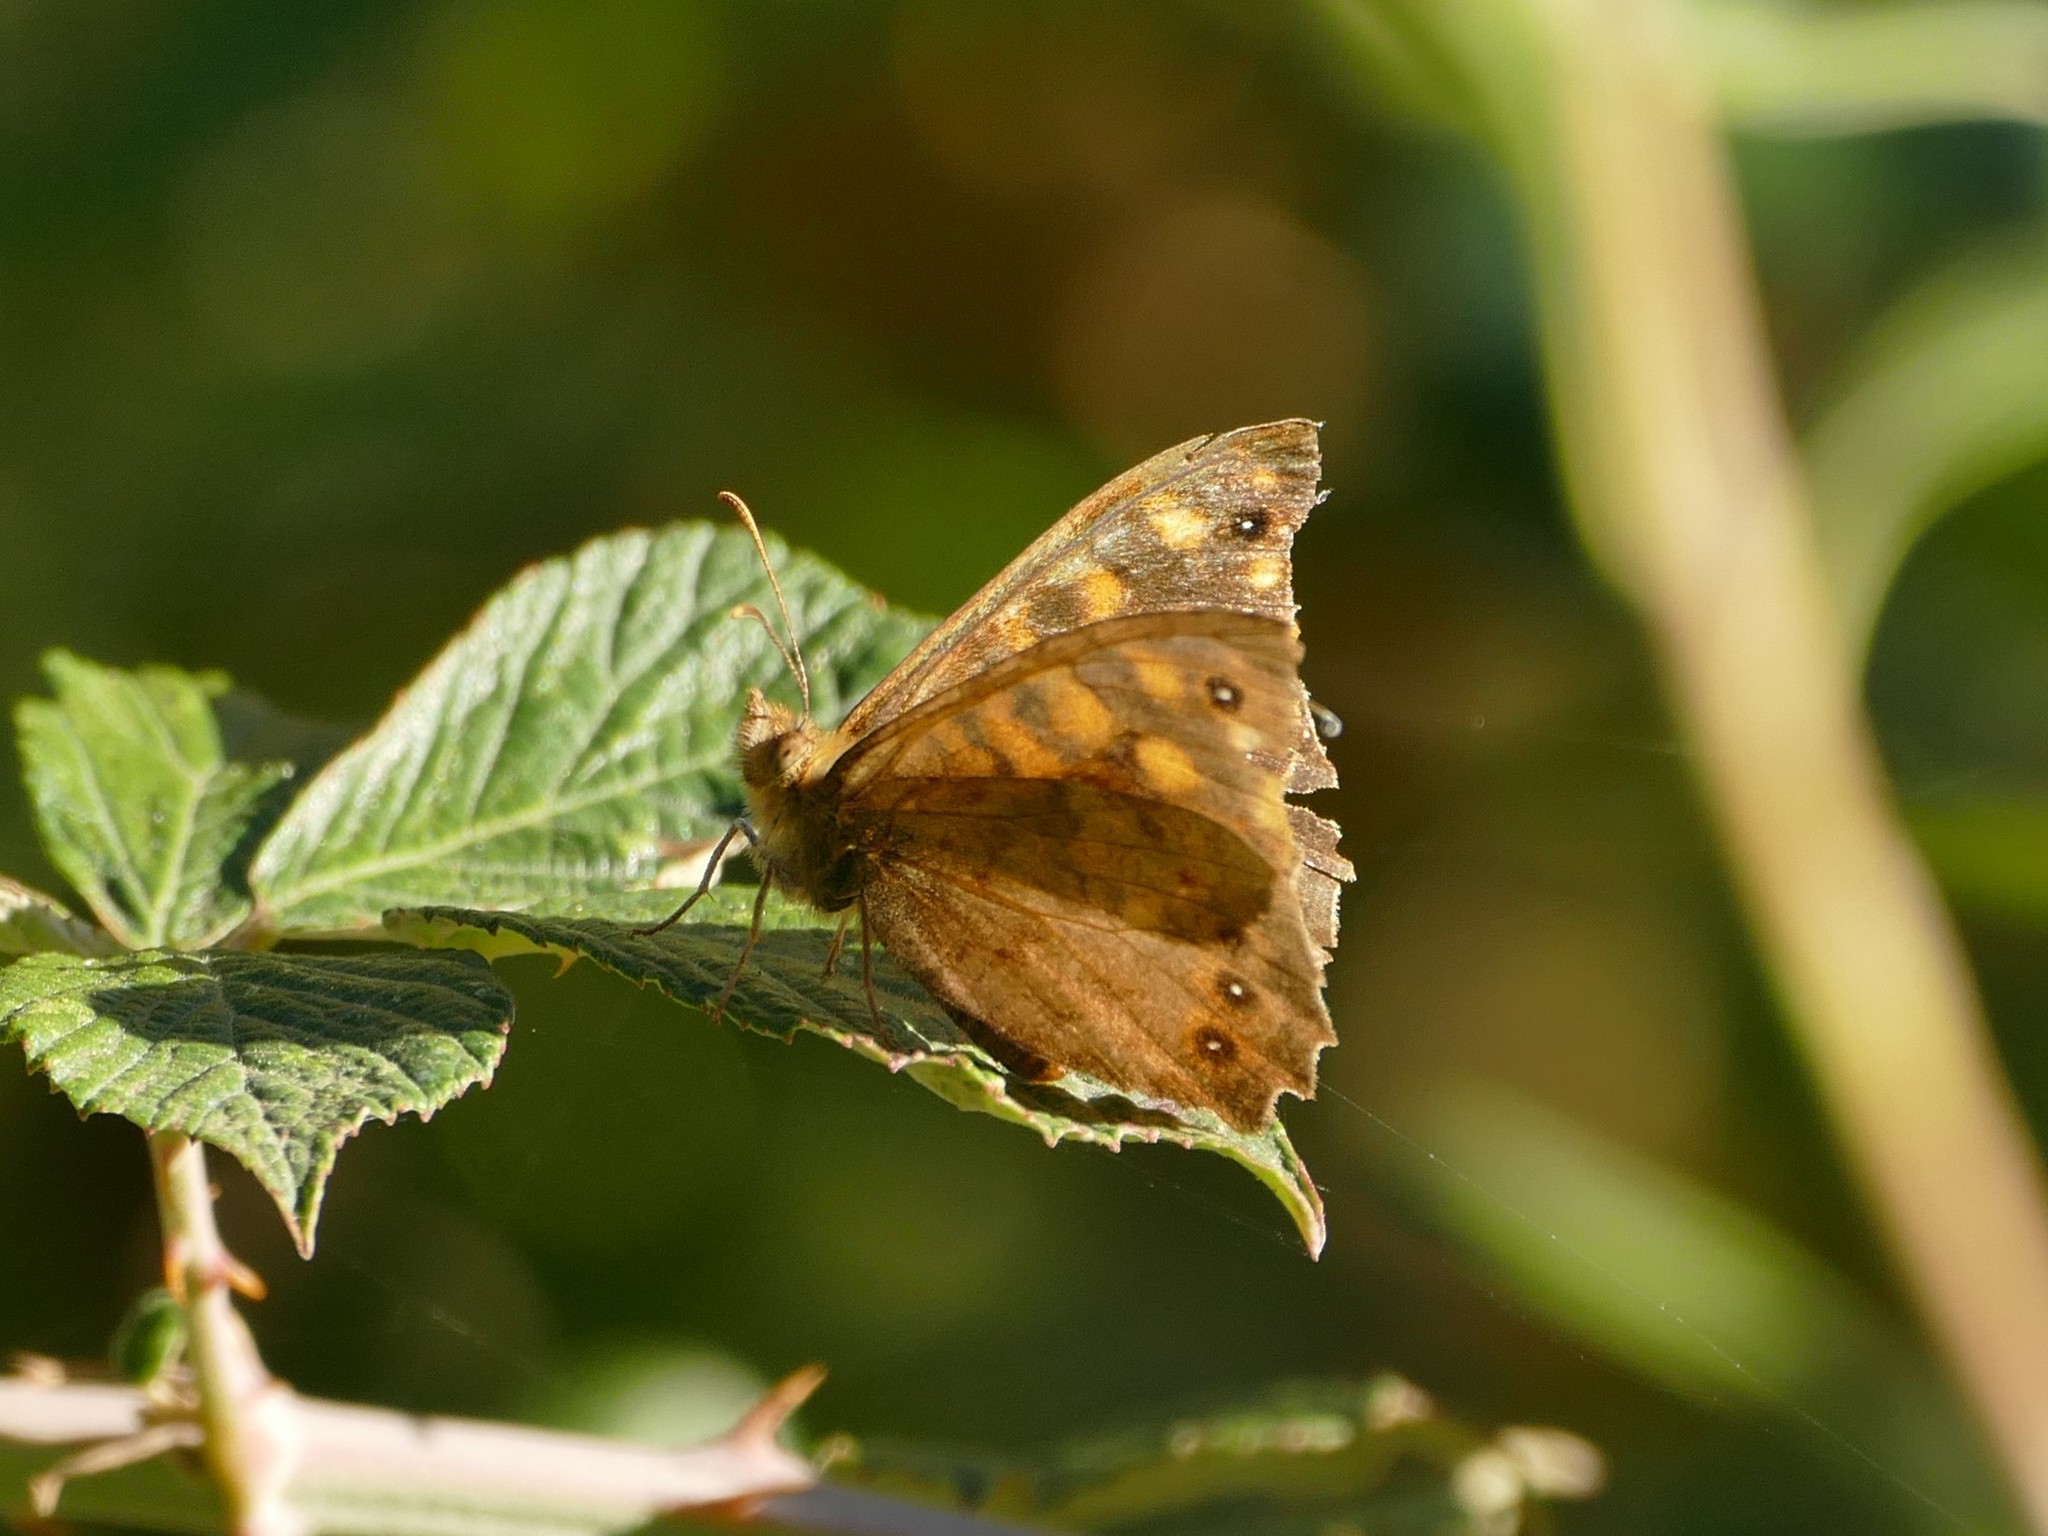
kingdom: Animalia
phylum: Arthropoda
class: Insecta
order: Lepidoptera
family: Nymphalidae
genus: Pararge
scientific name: Pararge aegeria
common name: Speckled wood
